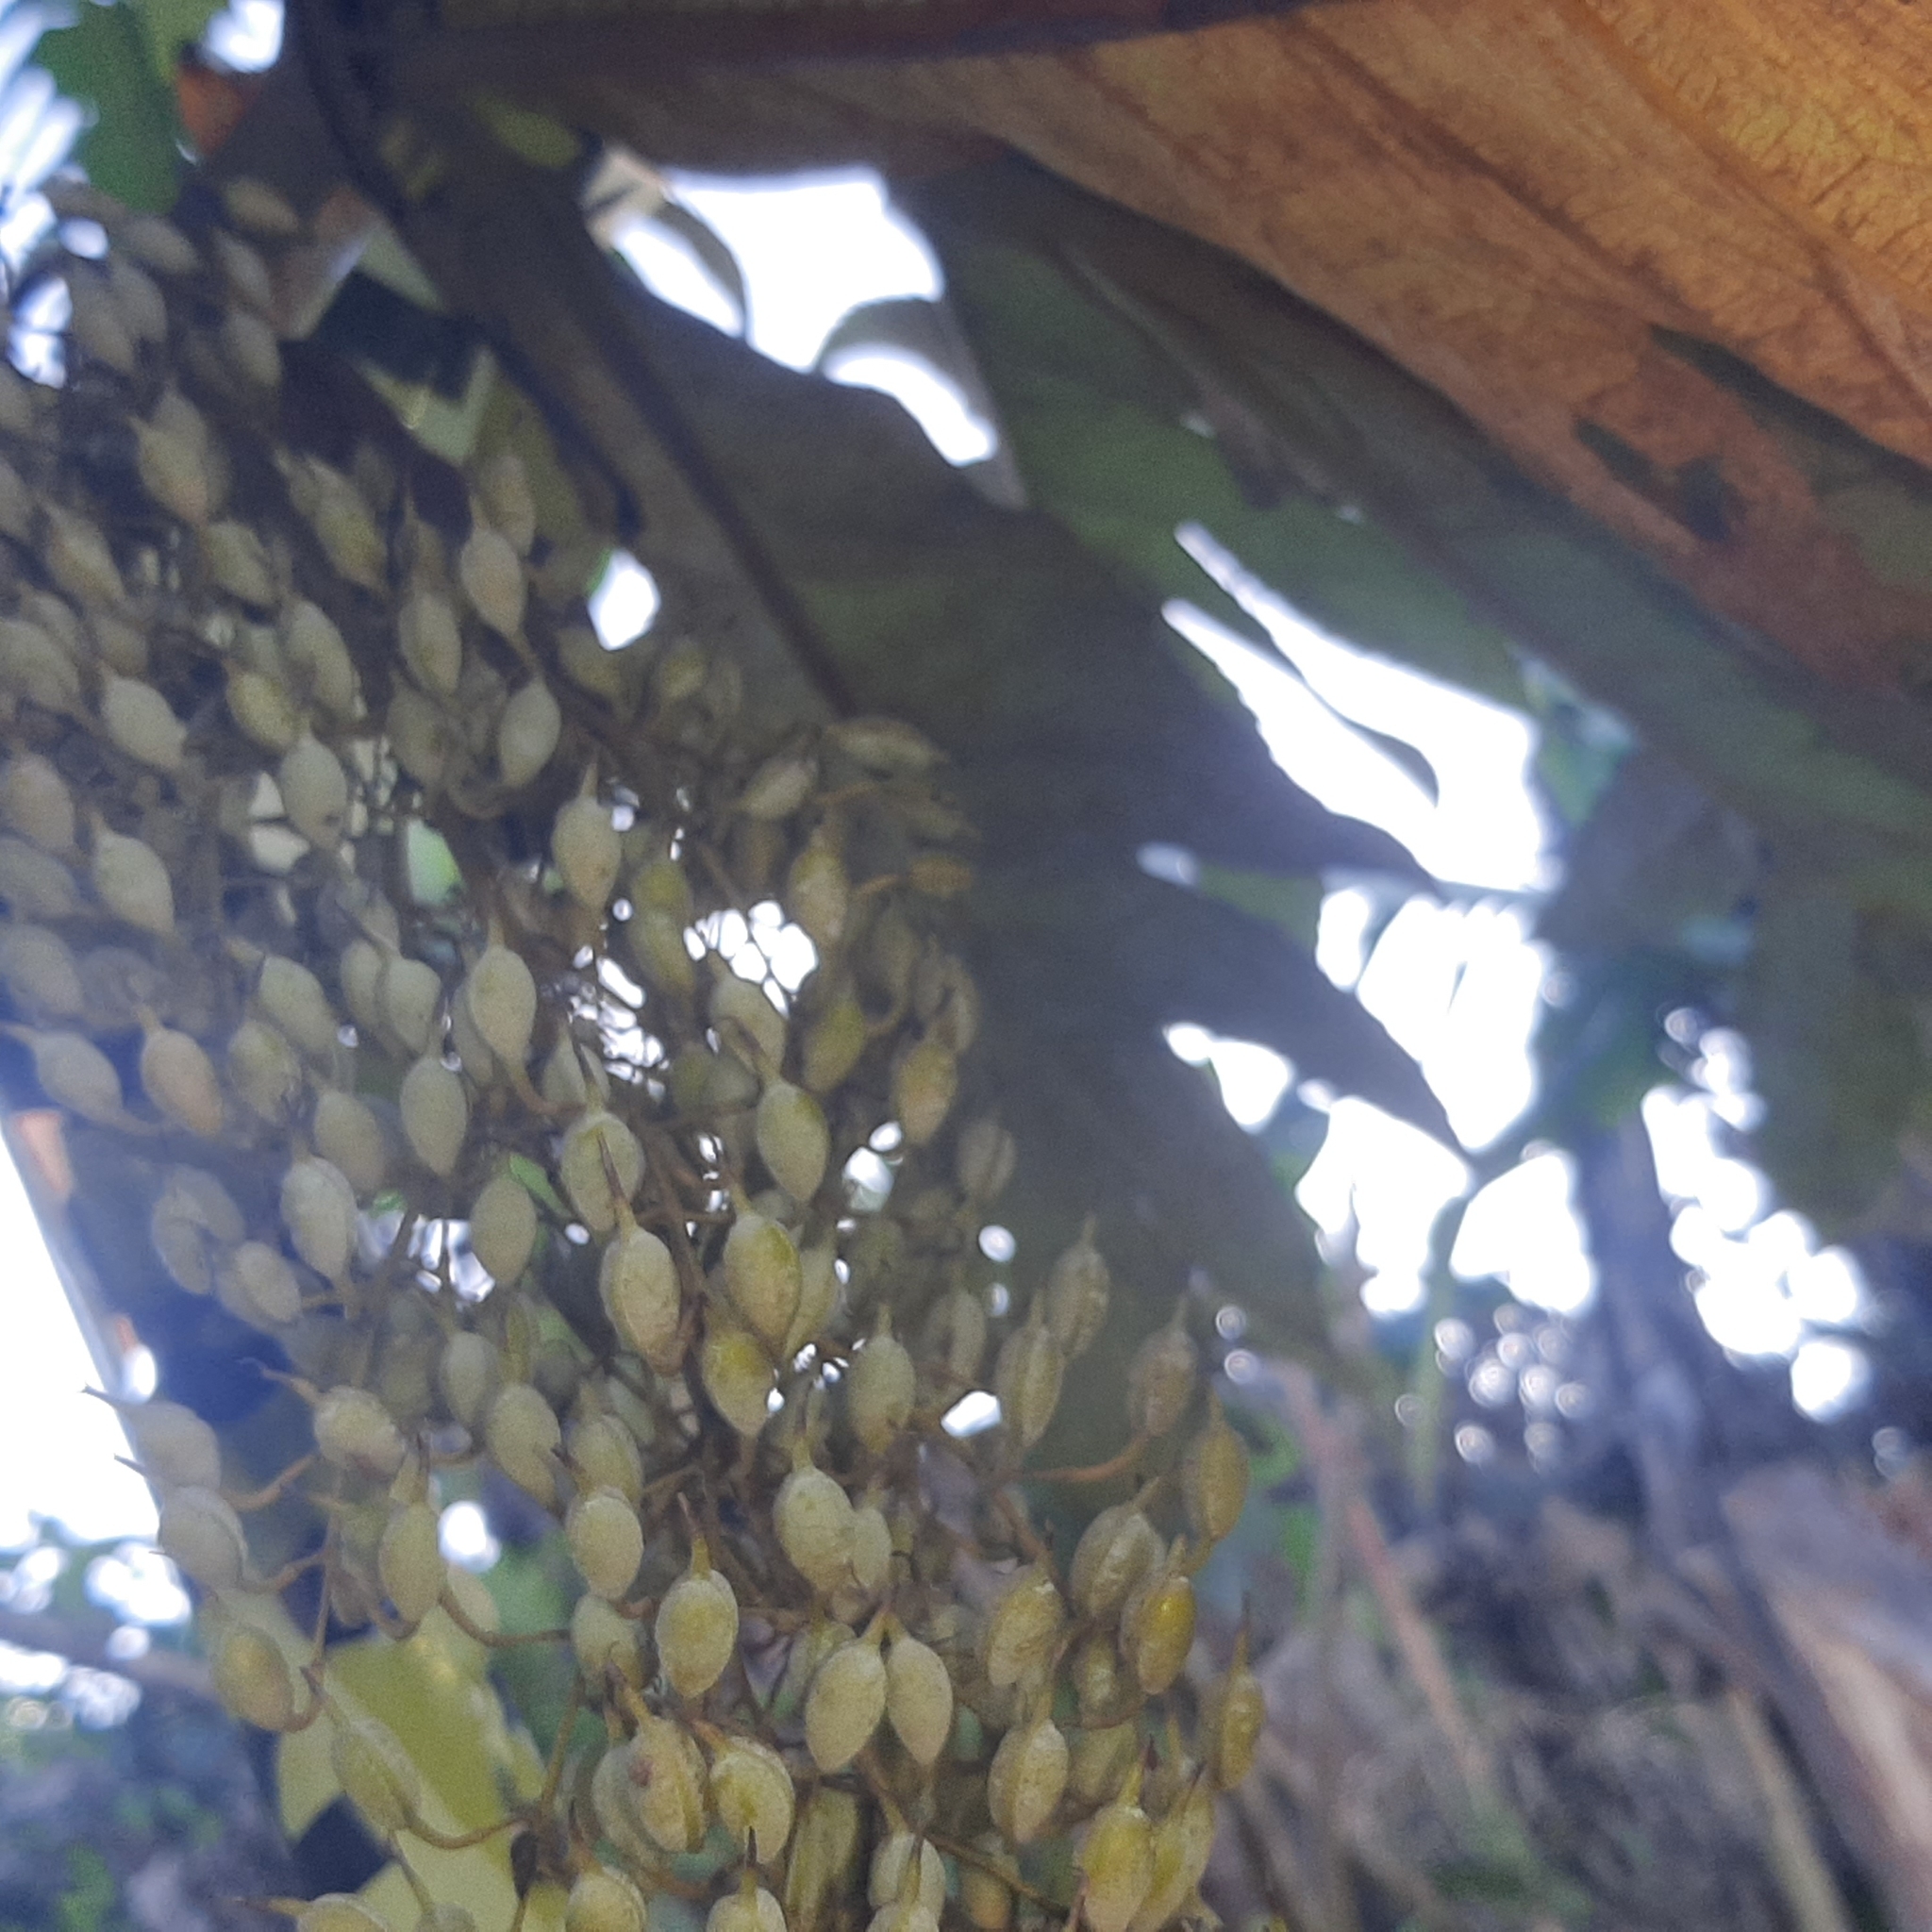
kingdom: Plantae
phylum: Tracheophyta
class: Magnoliopsida
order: Ranunculales
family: Papaveraceae
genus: Bocconia
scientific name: Bocconia frutescens
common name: Tree poppy
